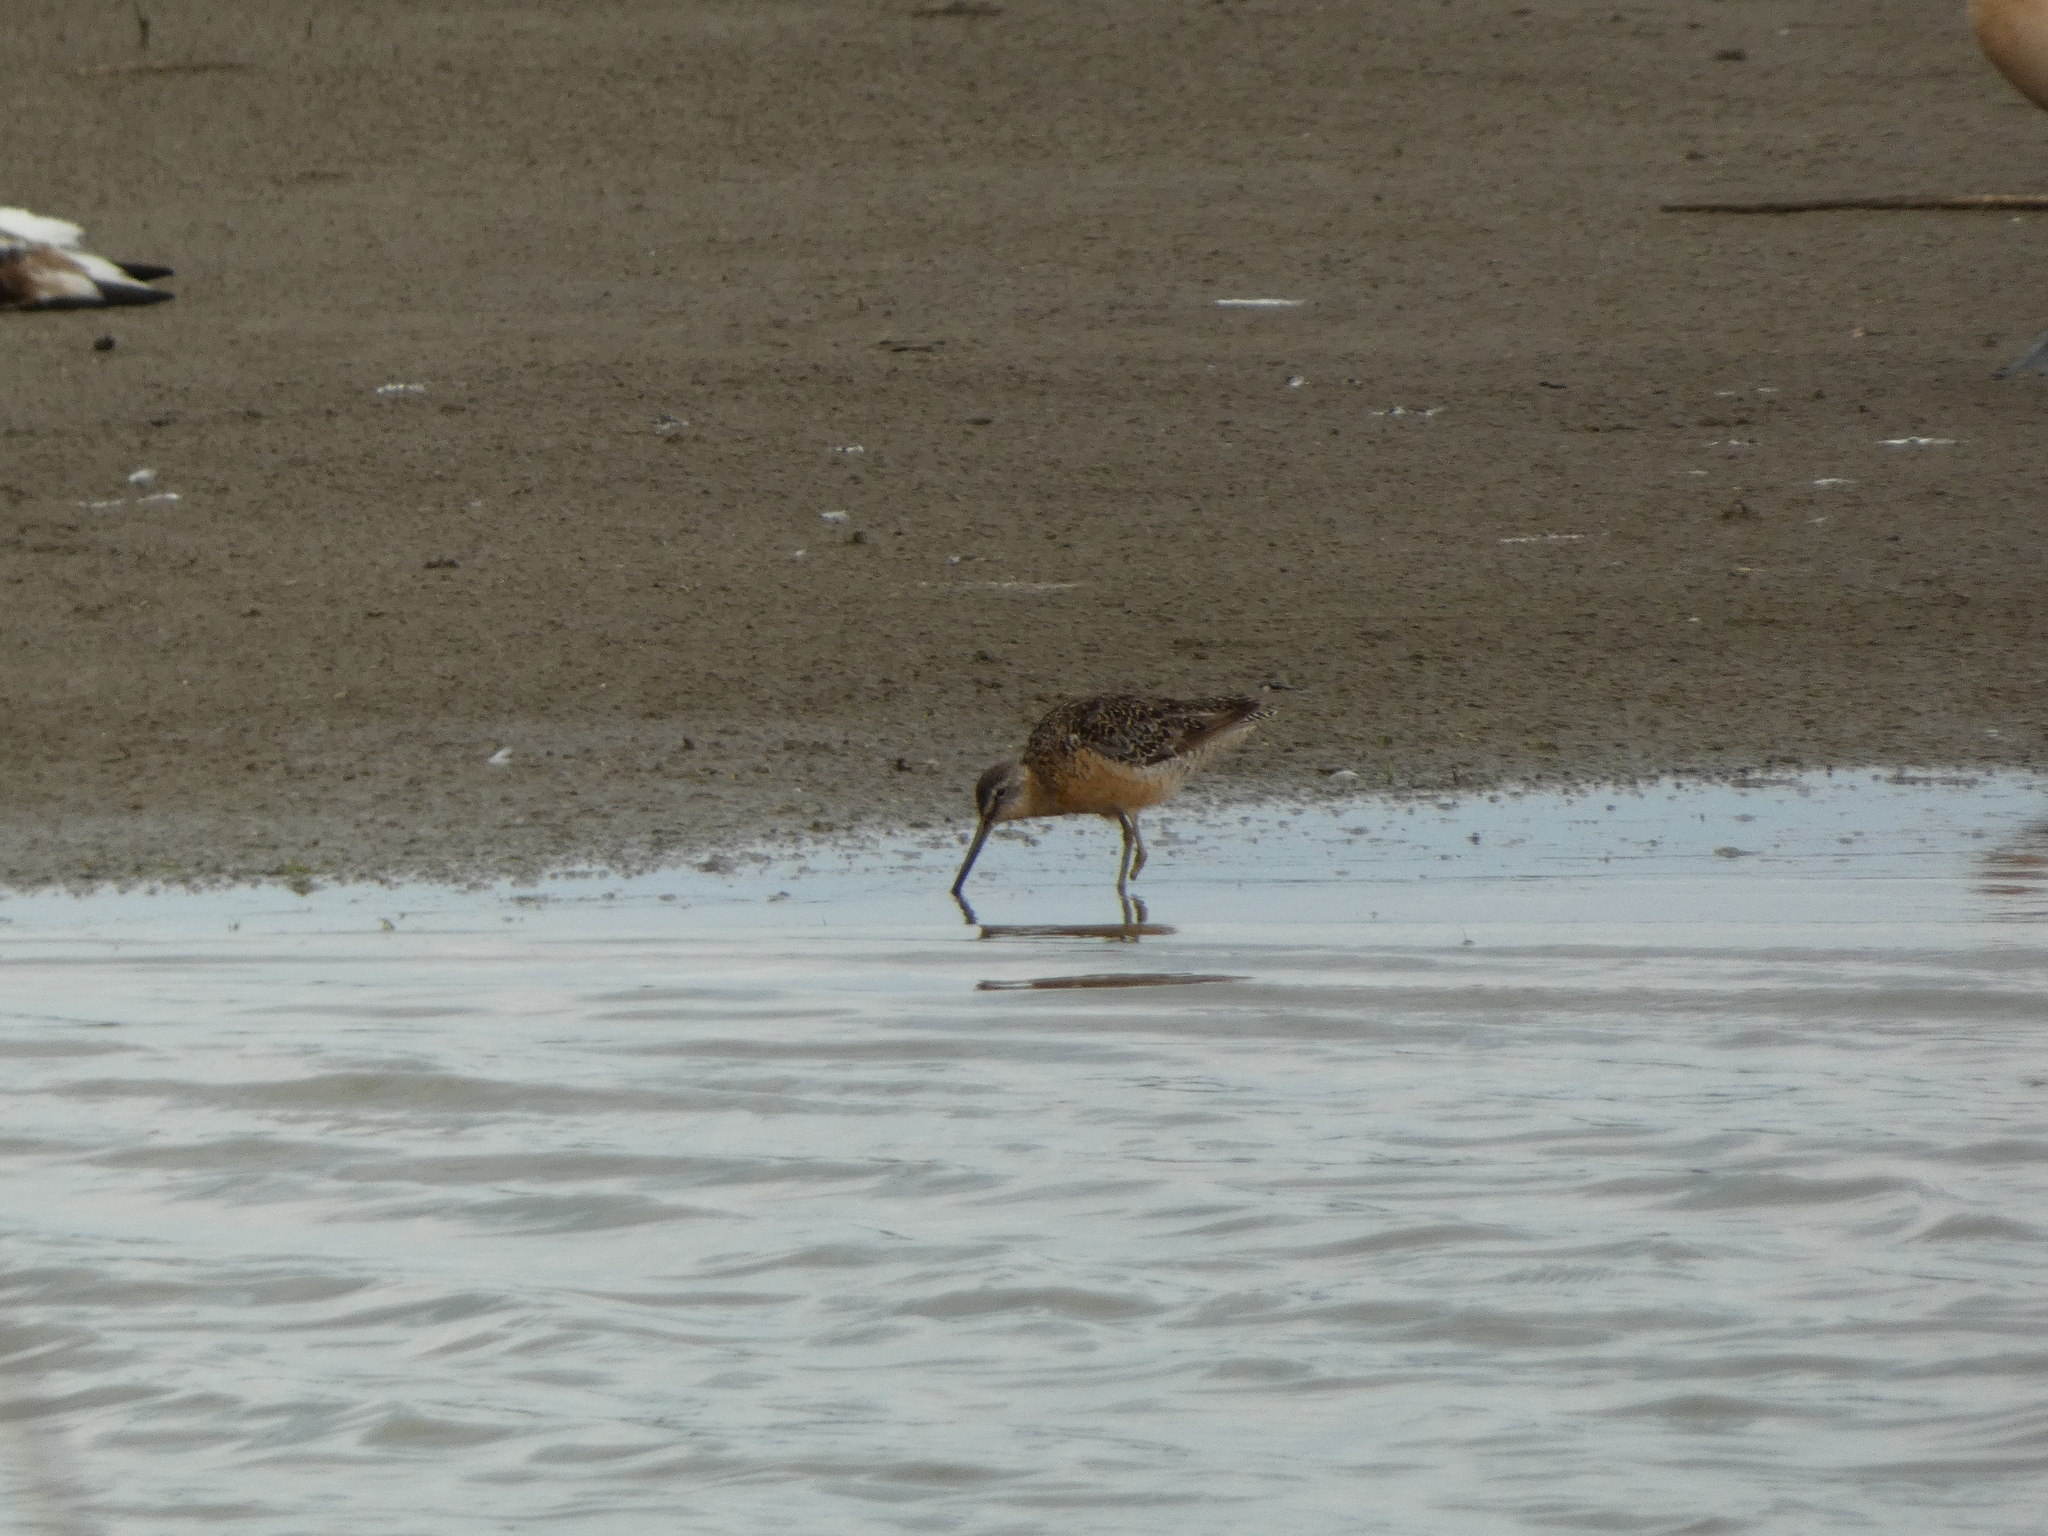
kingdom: Animalia
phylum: Chordata
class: Aves
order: Charadriiformes
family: Scolopacidae
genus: Limnodromus
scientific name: Limnodromus griseus
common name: Short-billed dowitcher
